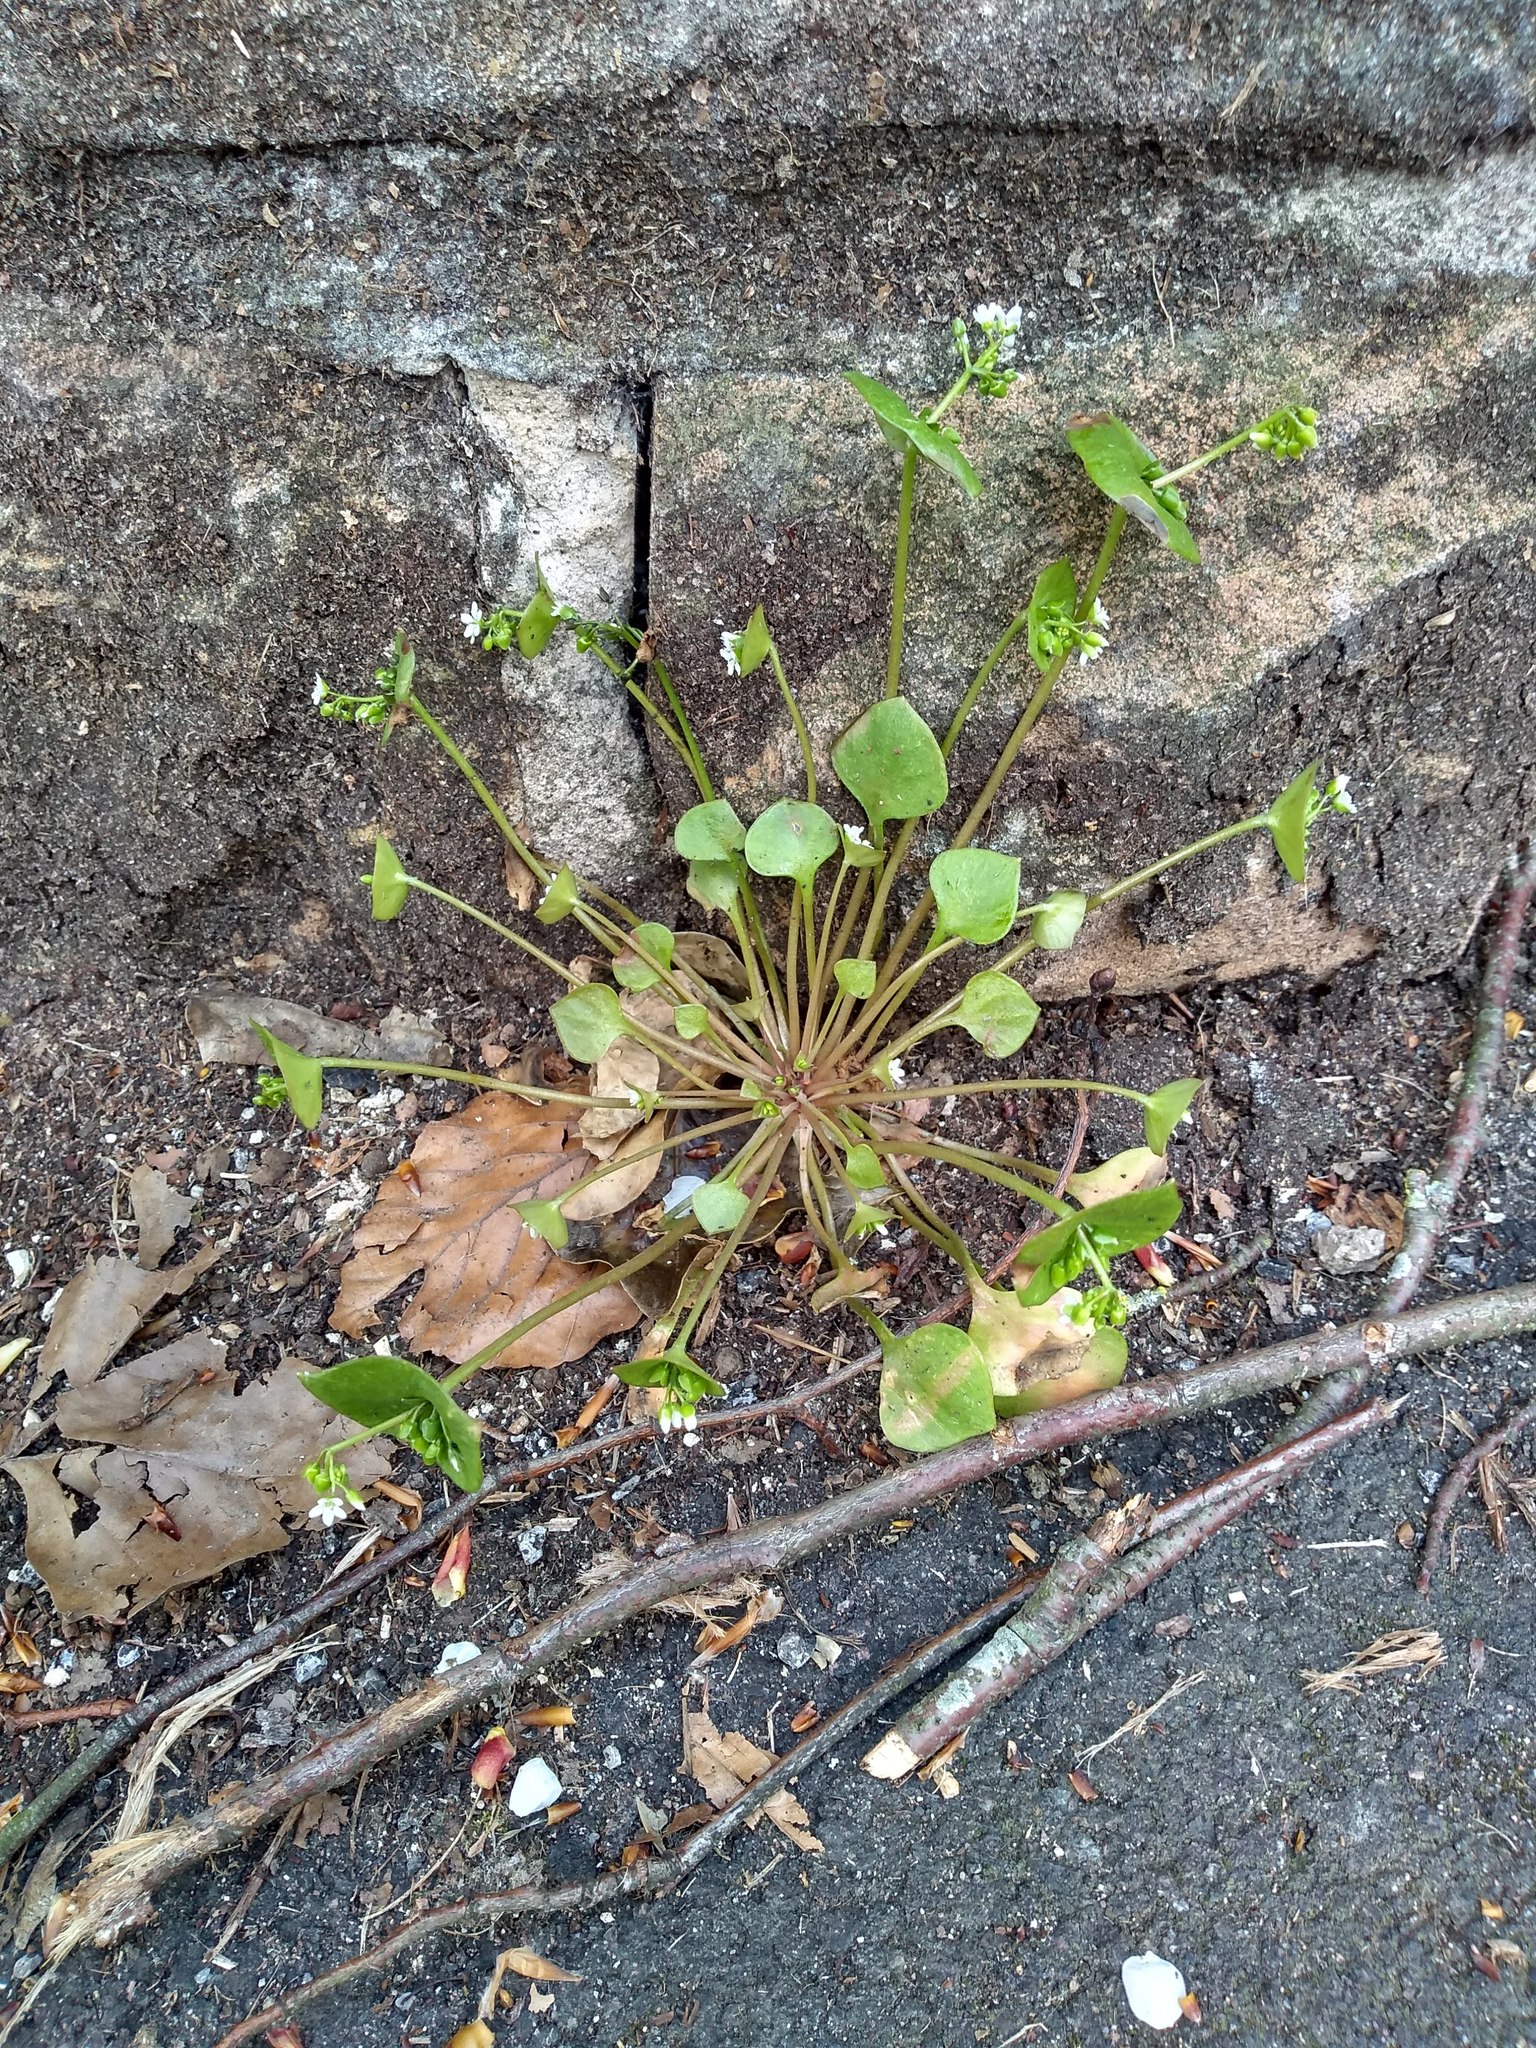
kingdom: Plantae
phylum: Tracheophyta
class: Magnoliopsida
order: Caryophyllales
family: Montiaceae
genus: Claytonia
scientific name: Claytonia perfoliata
